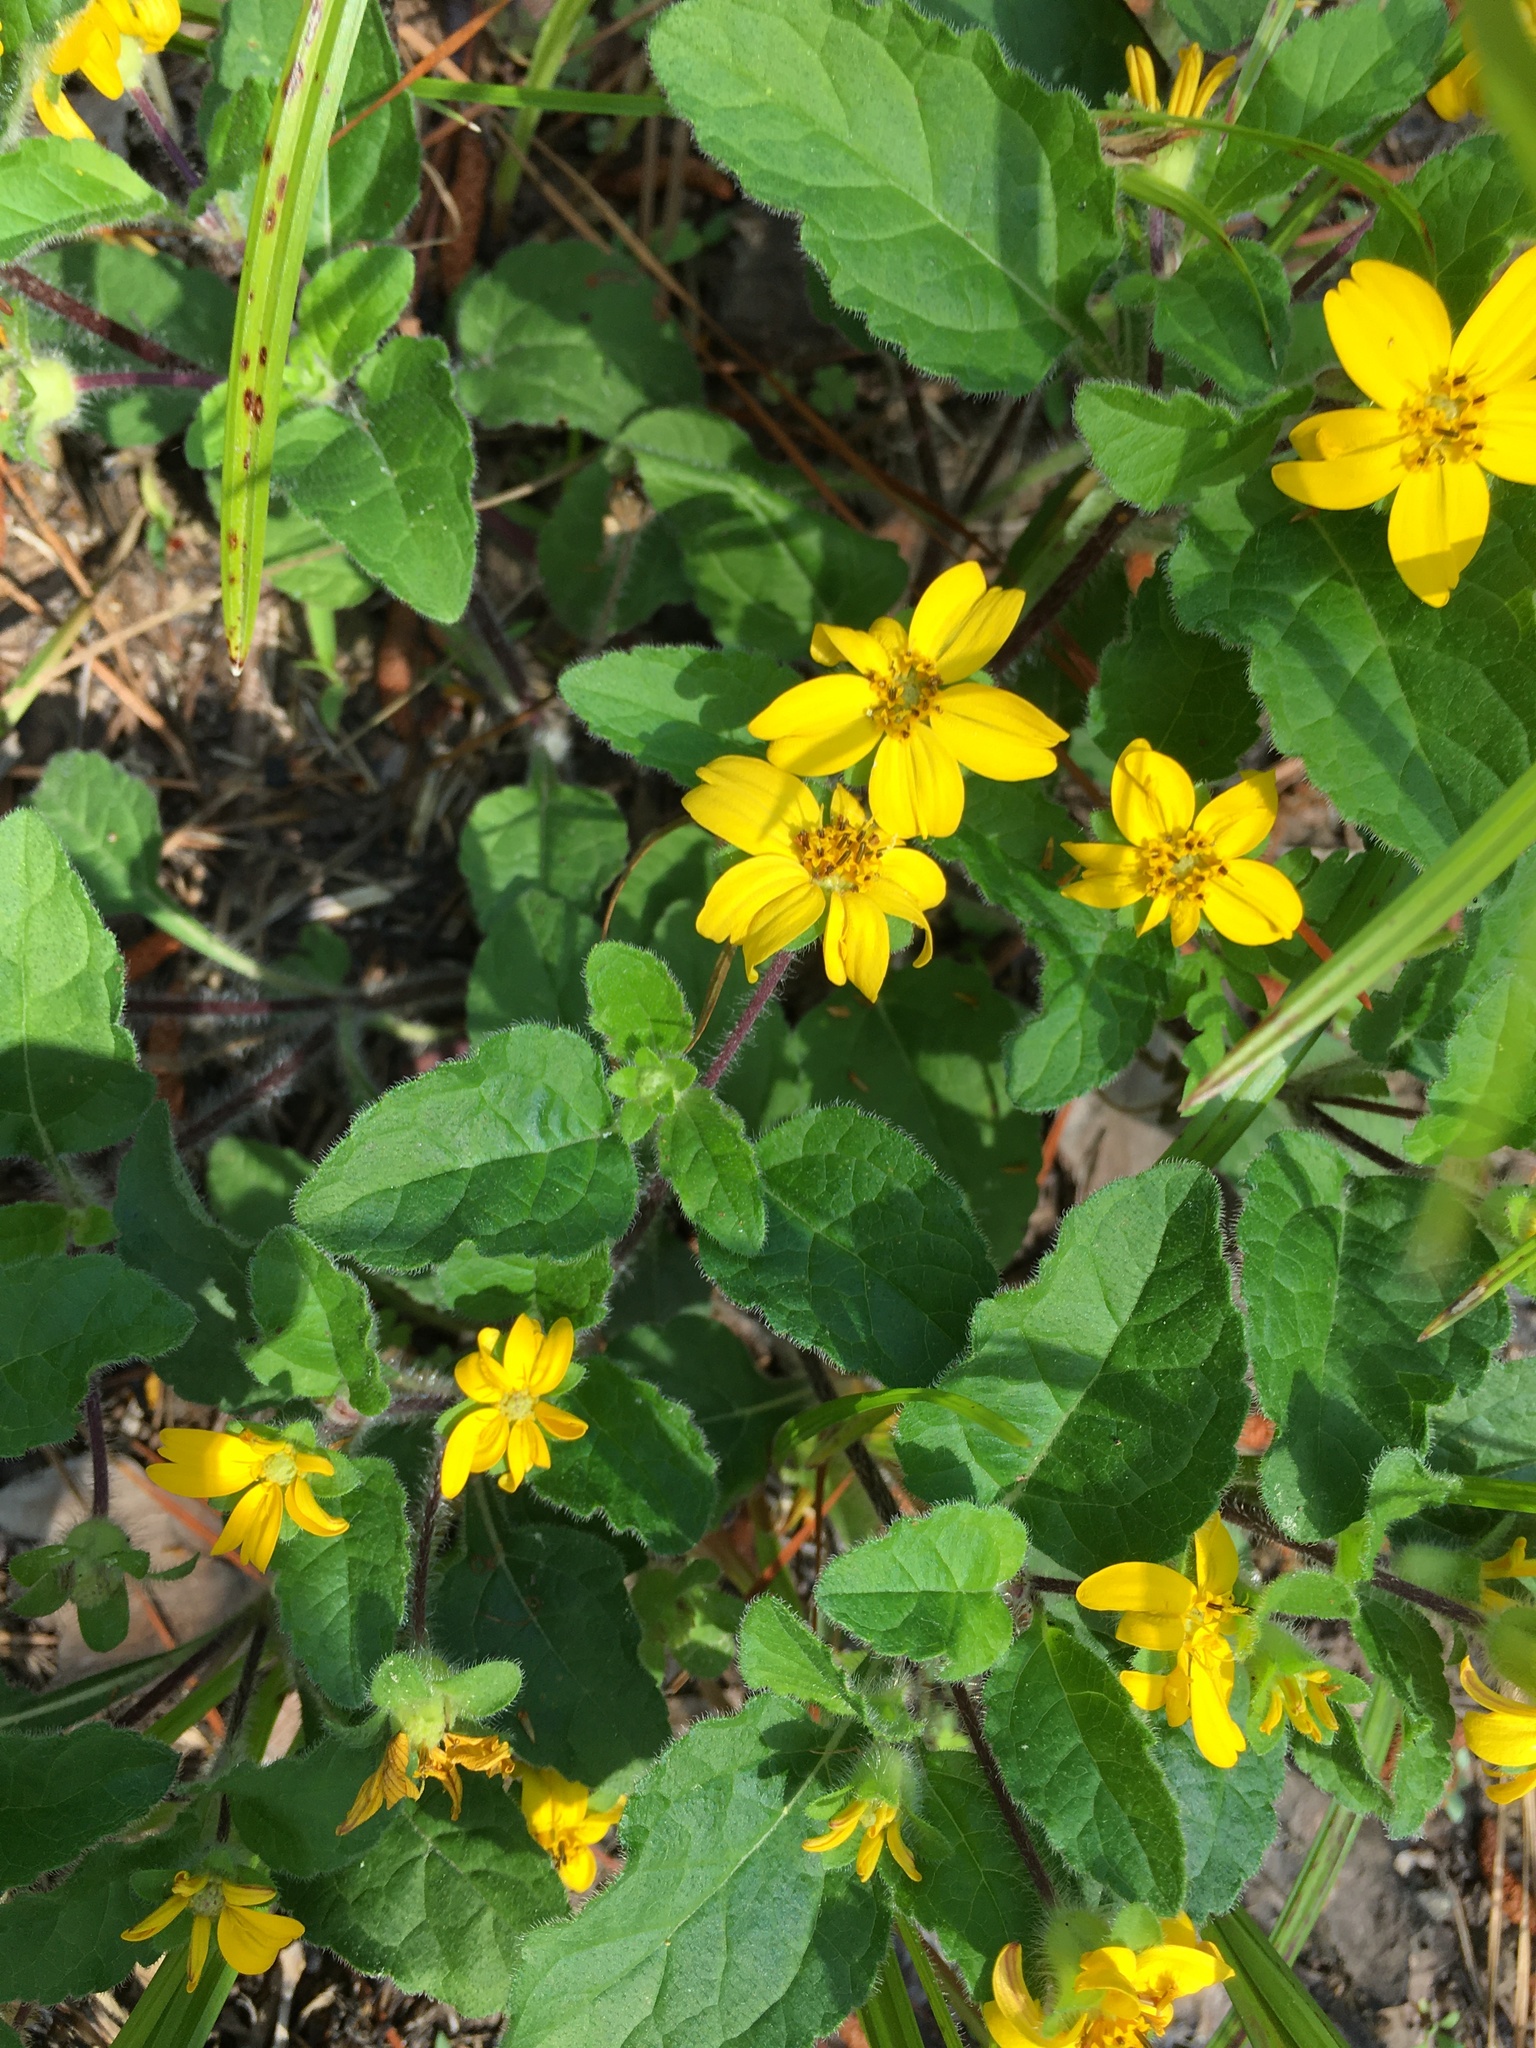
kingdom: Plantae
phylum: Tracheophyta
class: Magnoliopsida
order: Asterales
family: Asteraceae
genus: Chrysogonum
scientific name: Chrysogonum virginianum
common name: Golden-knee
